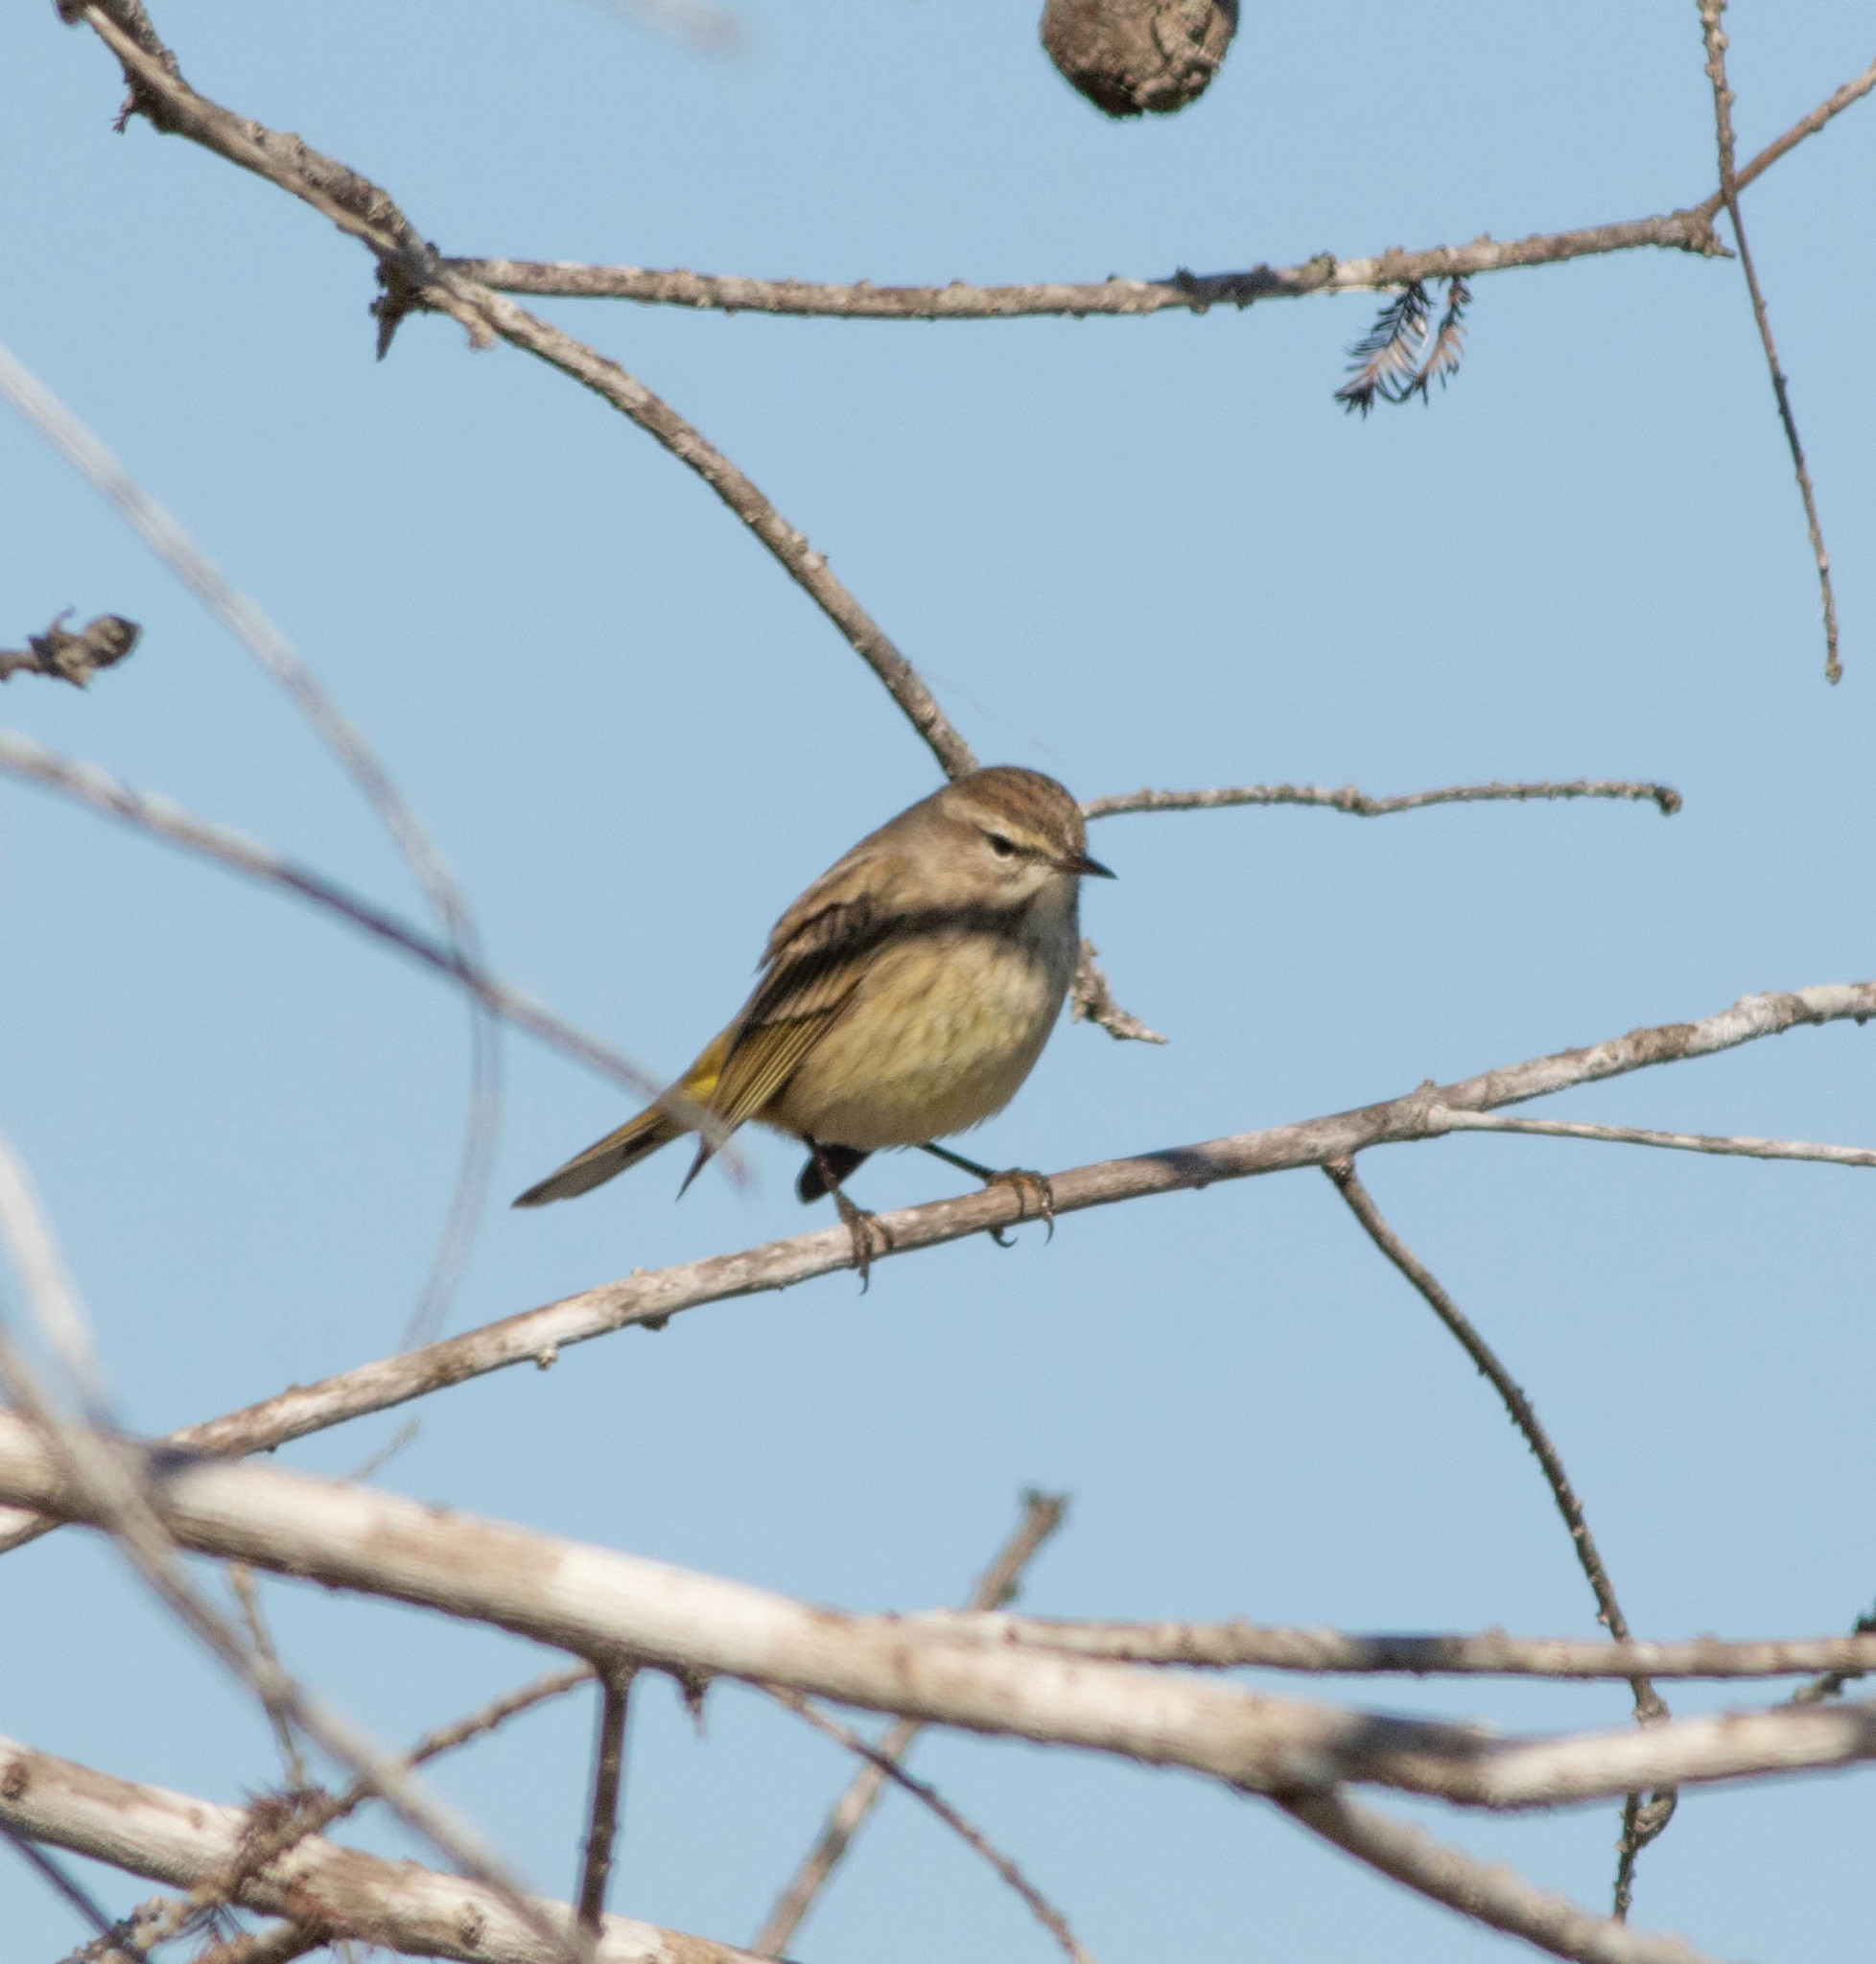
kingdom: Animalia
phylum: Chordata
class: Aves
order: Passeriformes
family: Parulidae
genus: Setophaga
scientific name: Setophaga palmarum
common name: Palm warbler
